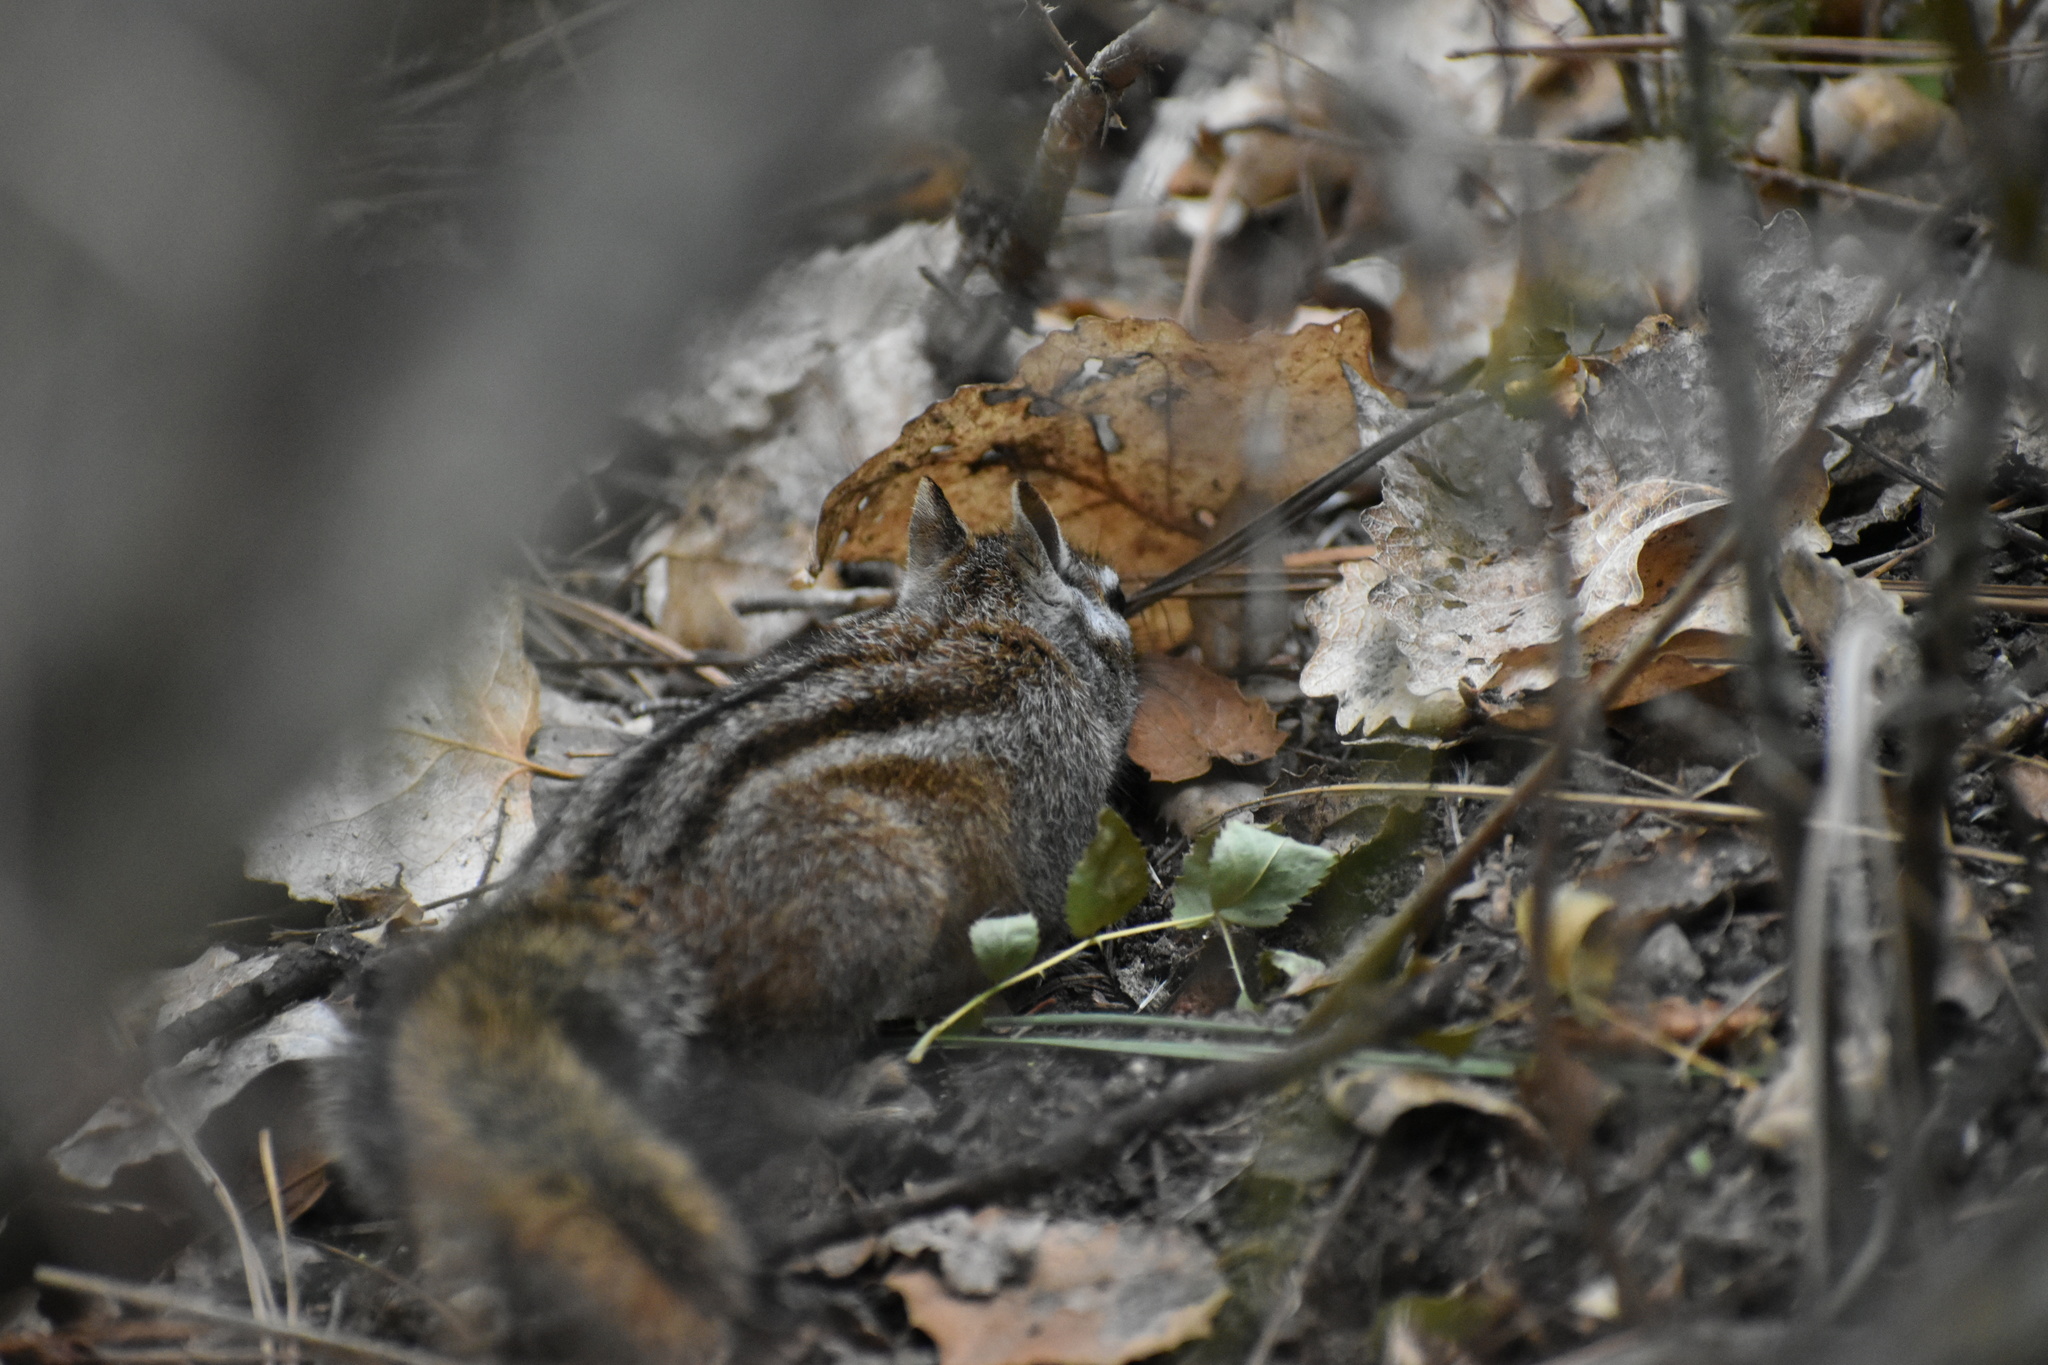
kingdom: Animalia
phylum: Chordata
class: Mammalia
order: Rodentia
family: Sciuridae
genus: Tamias
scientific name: Tamias merriami
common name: Merriam's chipmunk
